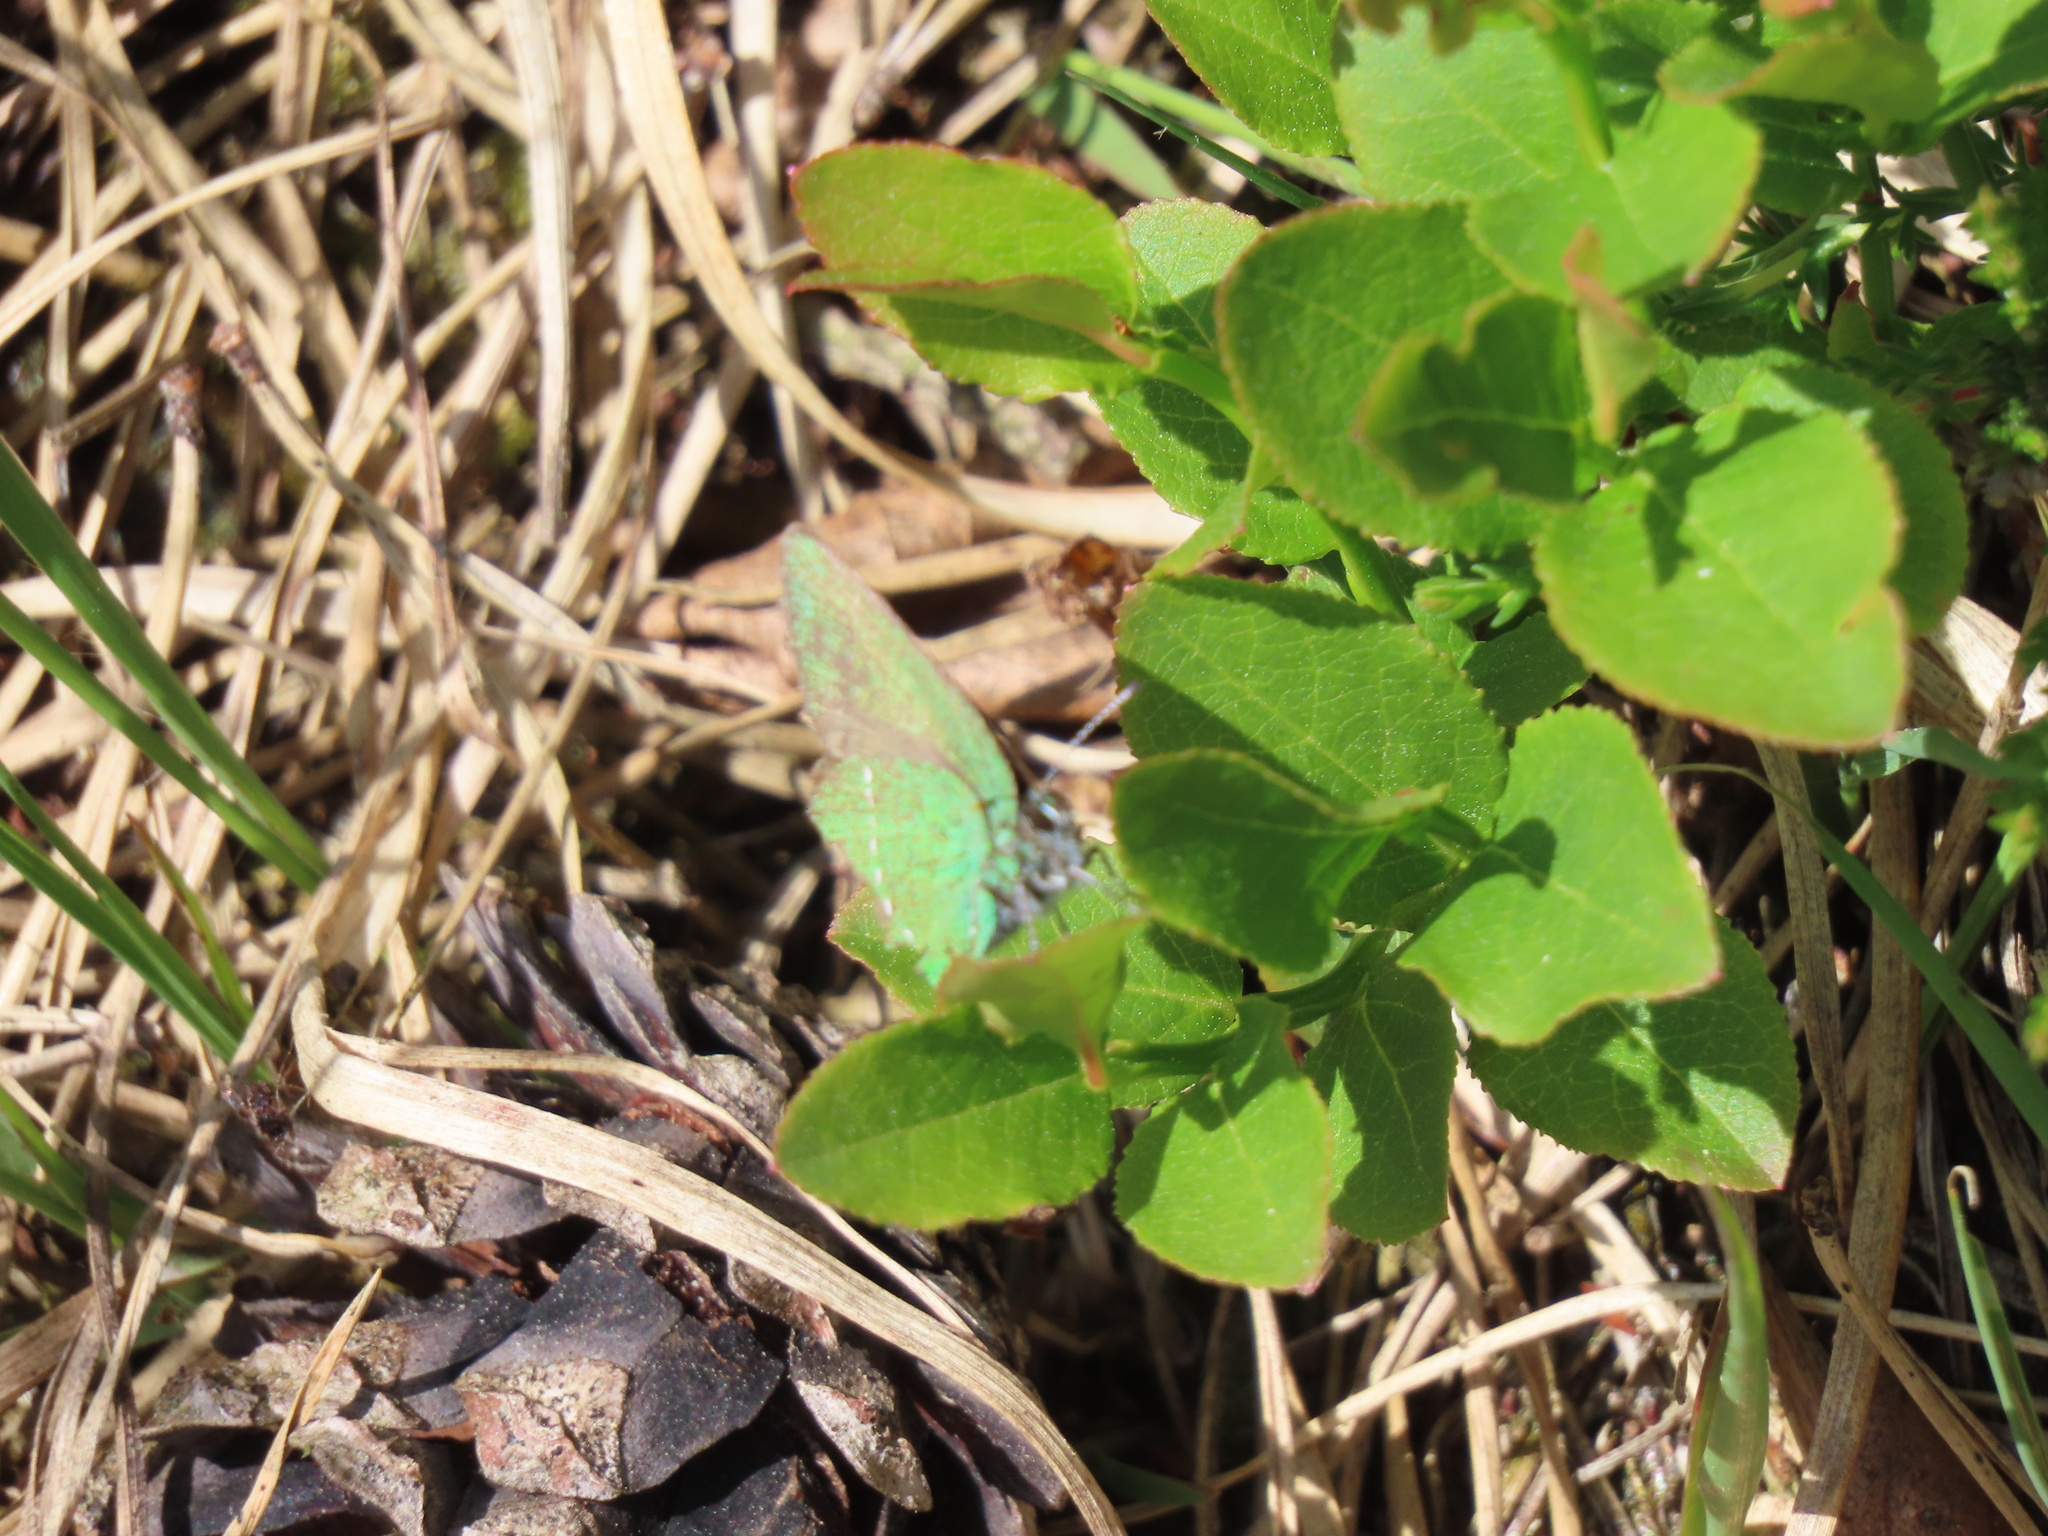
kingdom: Animalia
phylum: Arthropoda
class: Insecta
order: Lepidoptera
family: Lycaenidae
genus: Callophrys
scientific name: Callophrys rubi
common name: Green hairstreak
